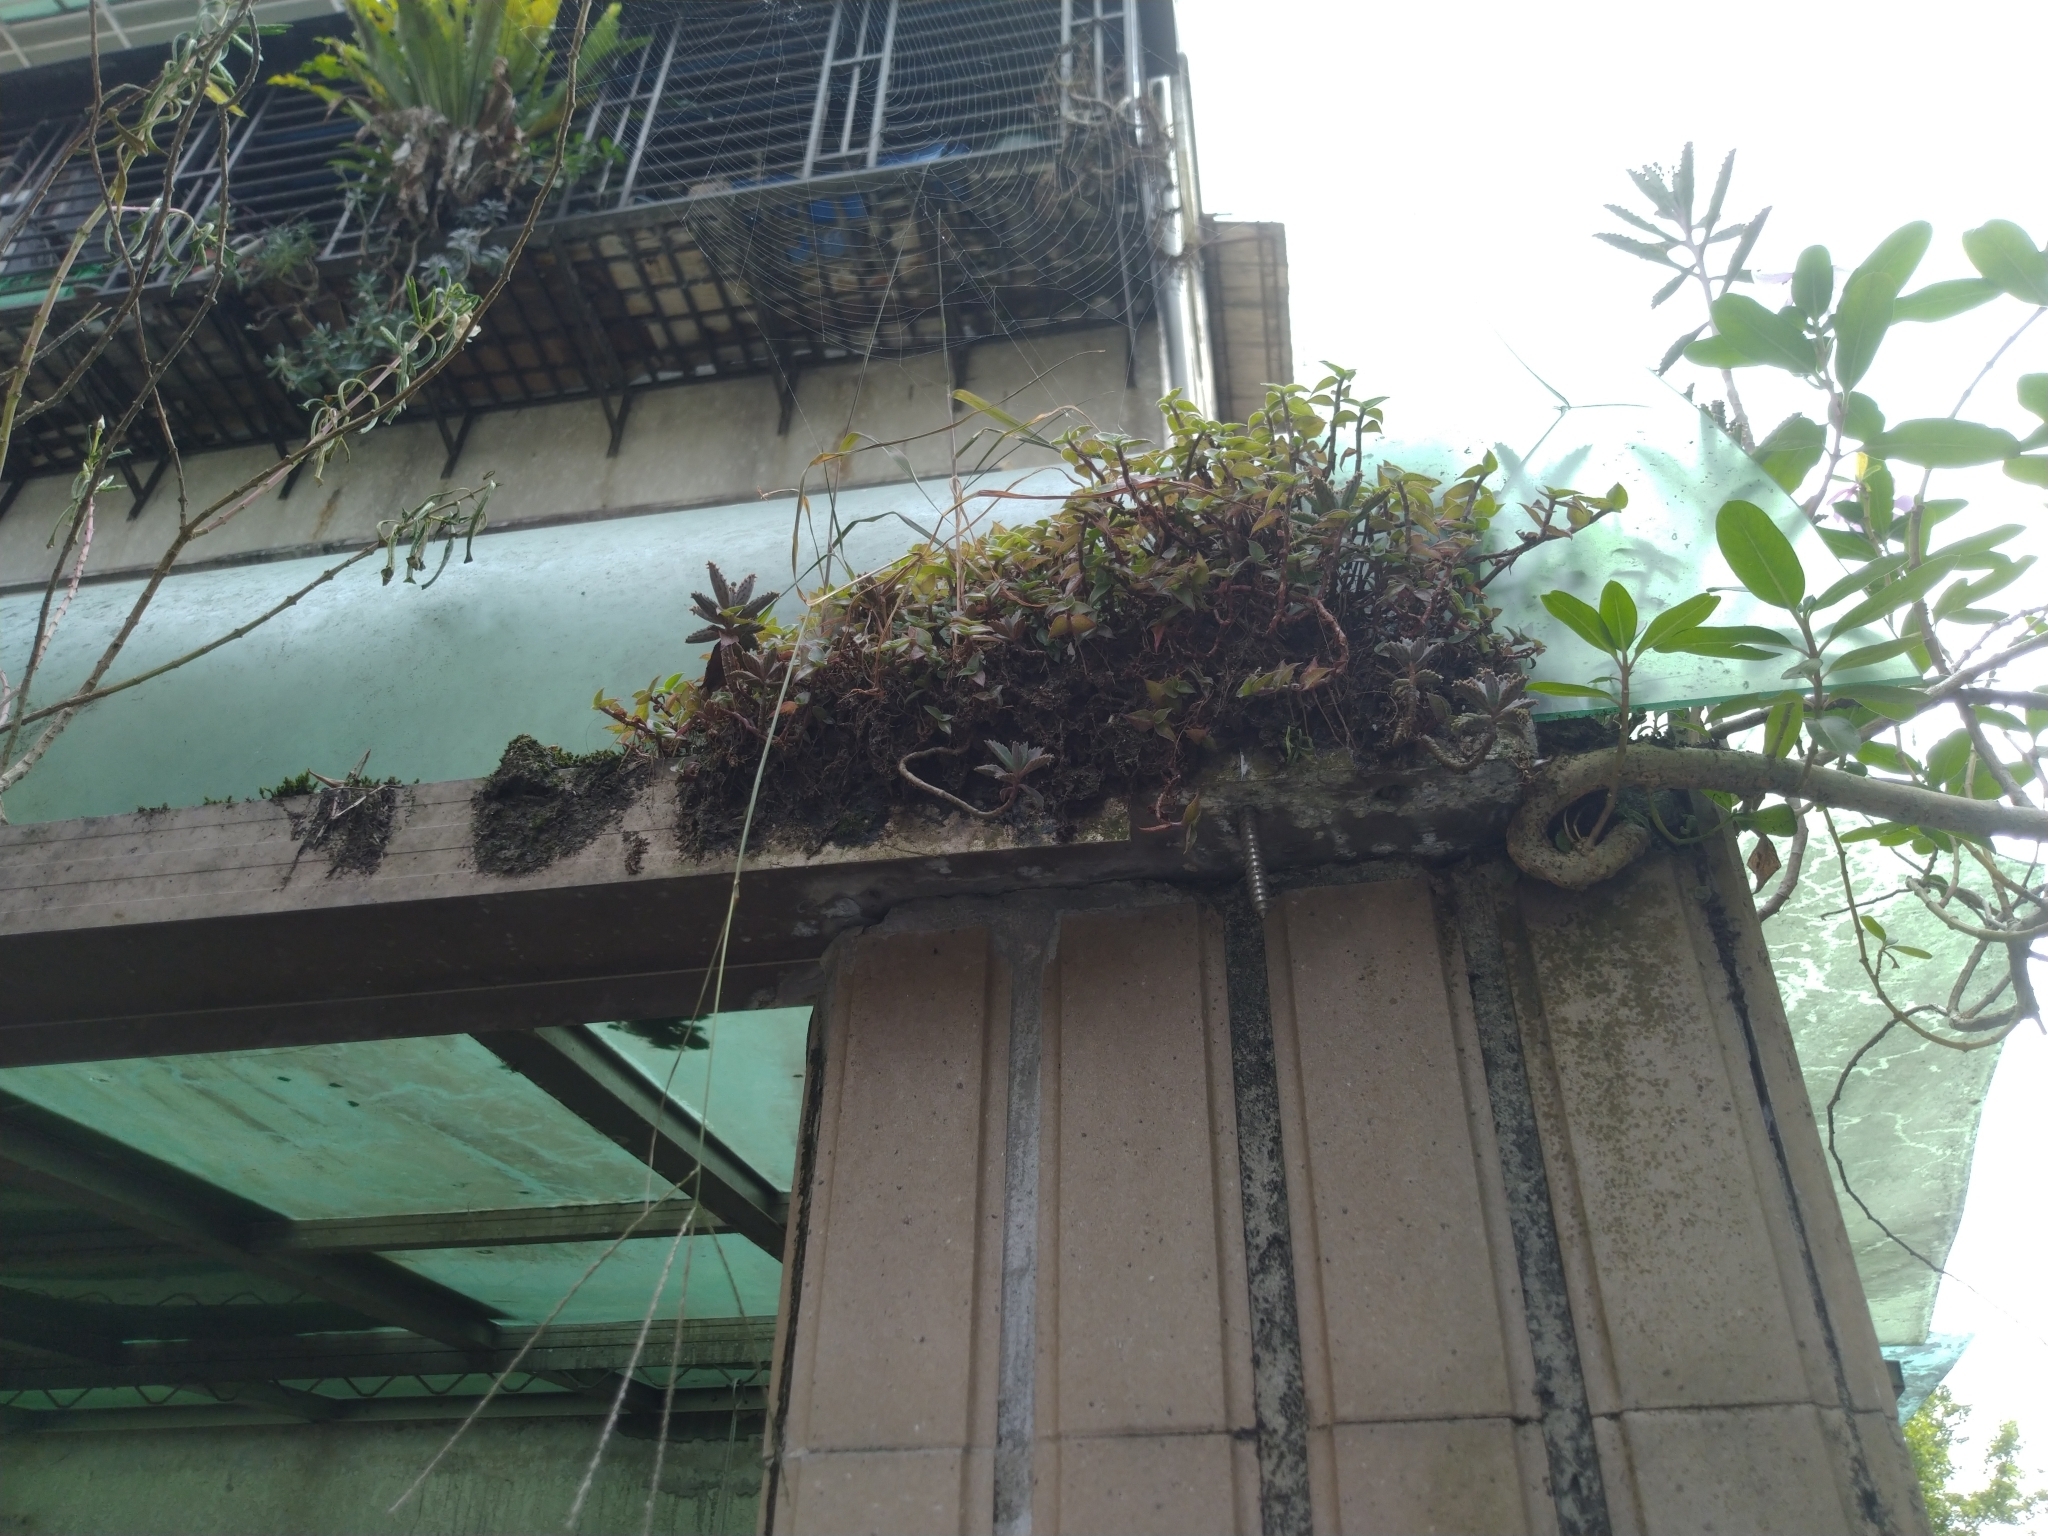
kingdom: Plantae
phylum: Tracheophyta
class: Magnoliopsida
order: Saxifragales
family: Crassulaceae
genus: Kalanchoe
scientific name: Kalanchoe houghtonii
